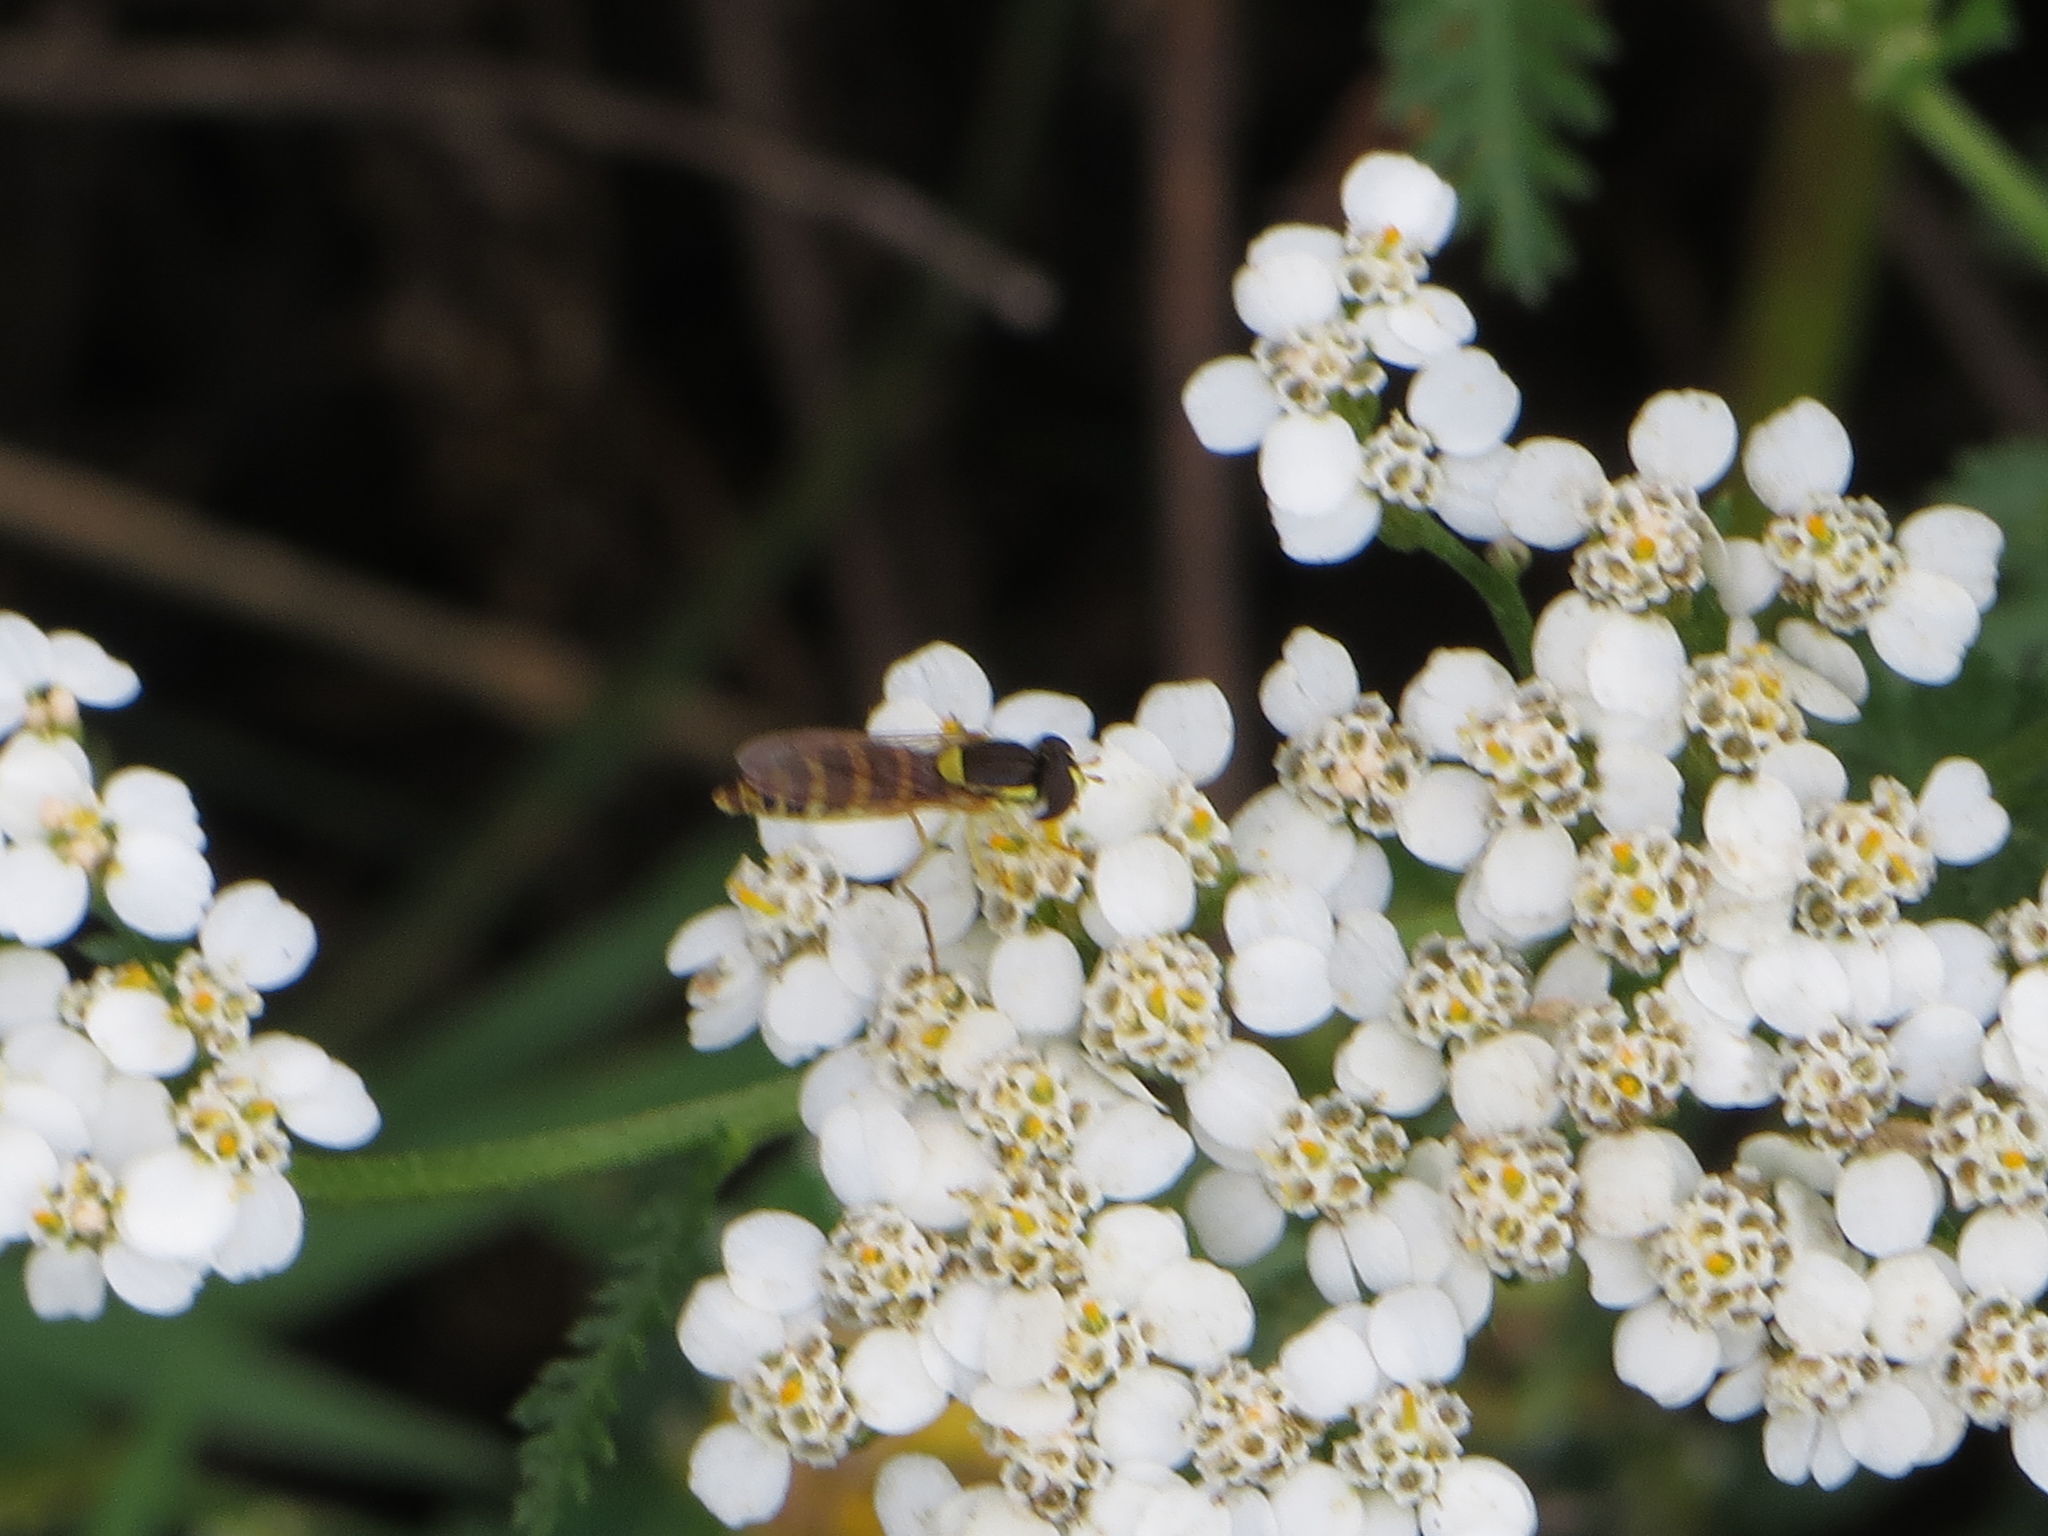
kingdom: Animalia
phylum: Arthropoda
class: Insecta
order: Diptera
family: Syrphidae
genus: Sphaerophoria
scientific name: Sphaerophoria
